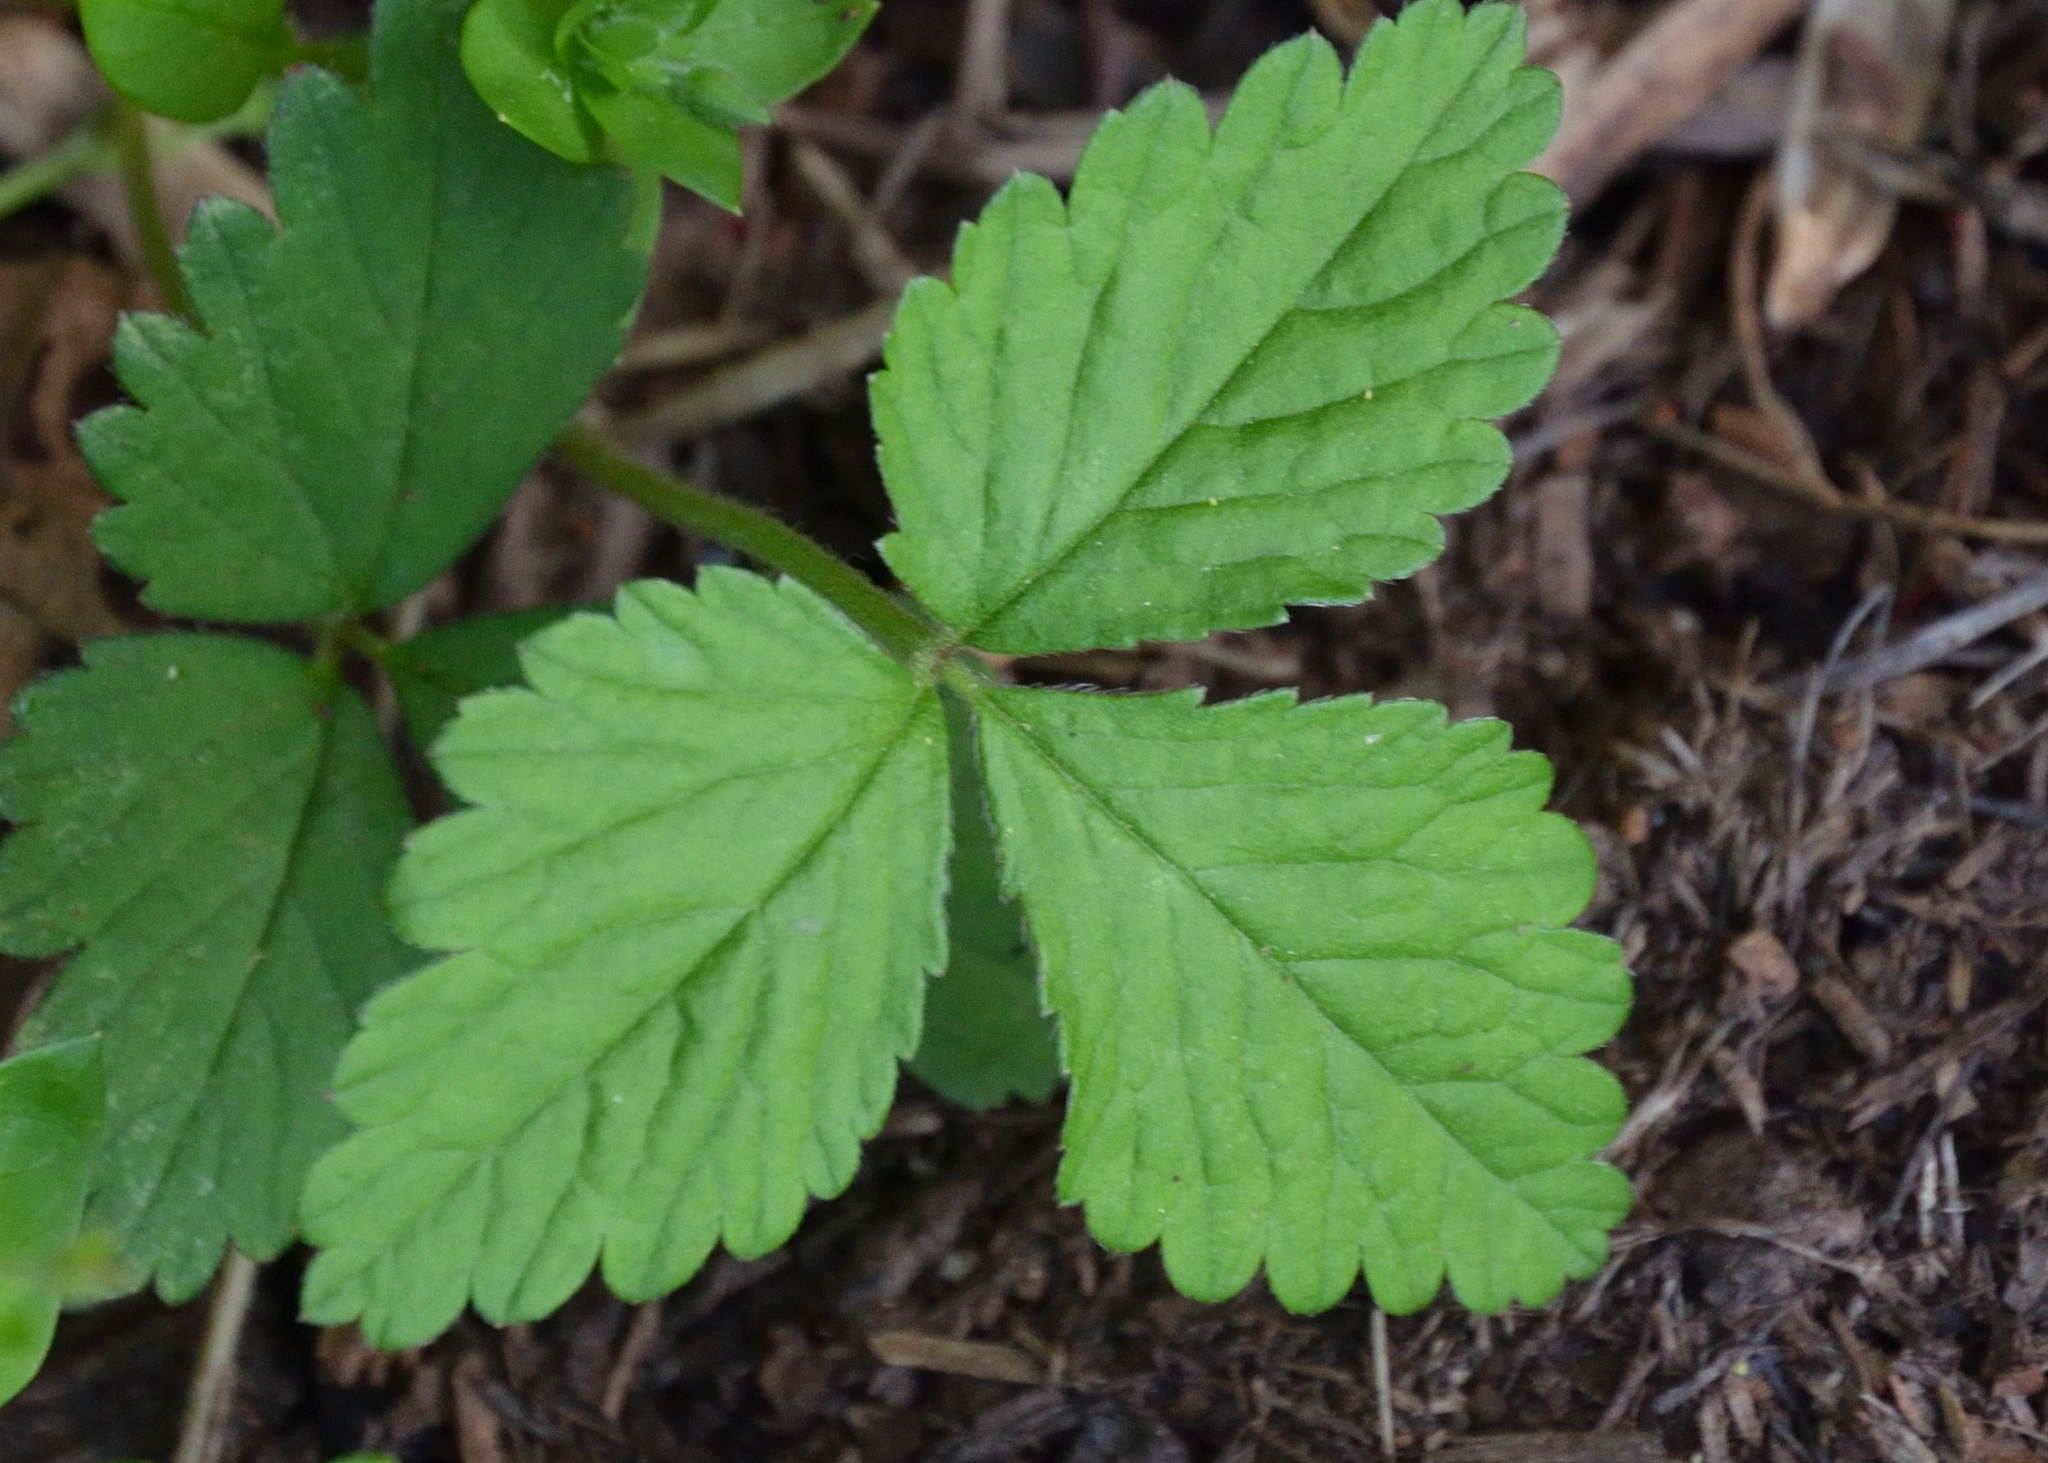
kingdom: Plantae
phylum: Tracheophyta
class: Magnoliopsida
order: Rosales
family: Rosaceae
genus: Potentilla
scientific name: Potentilla indica
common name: Yellow-flowered strawberry
